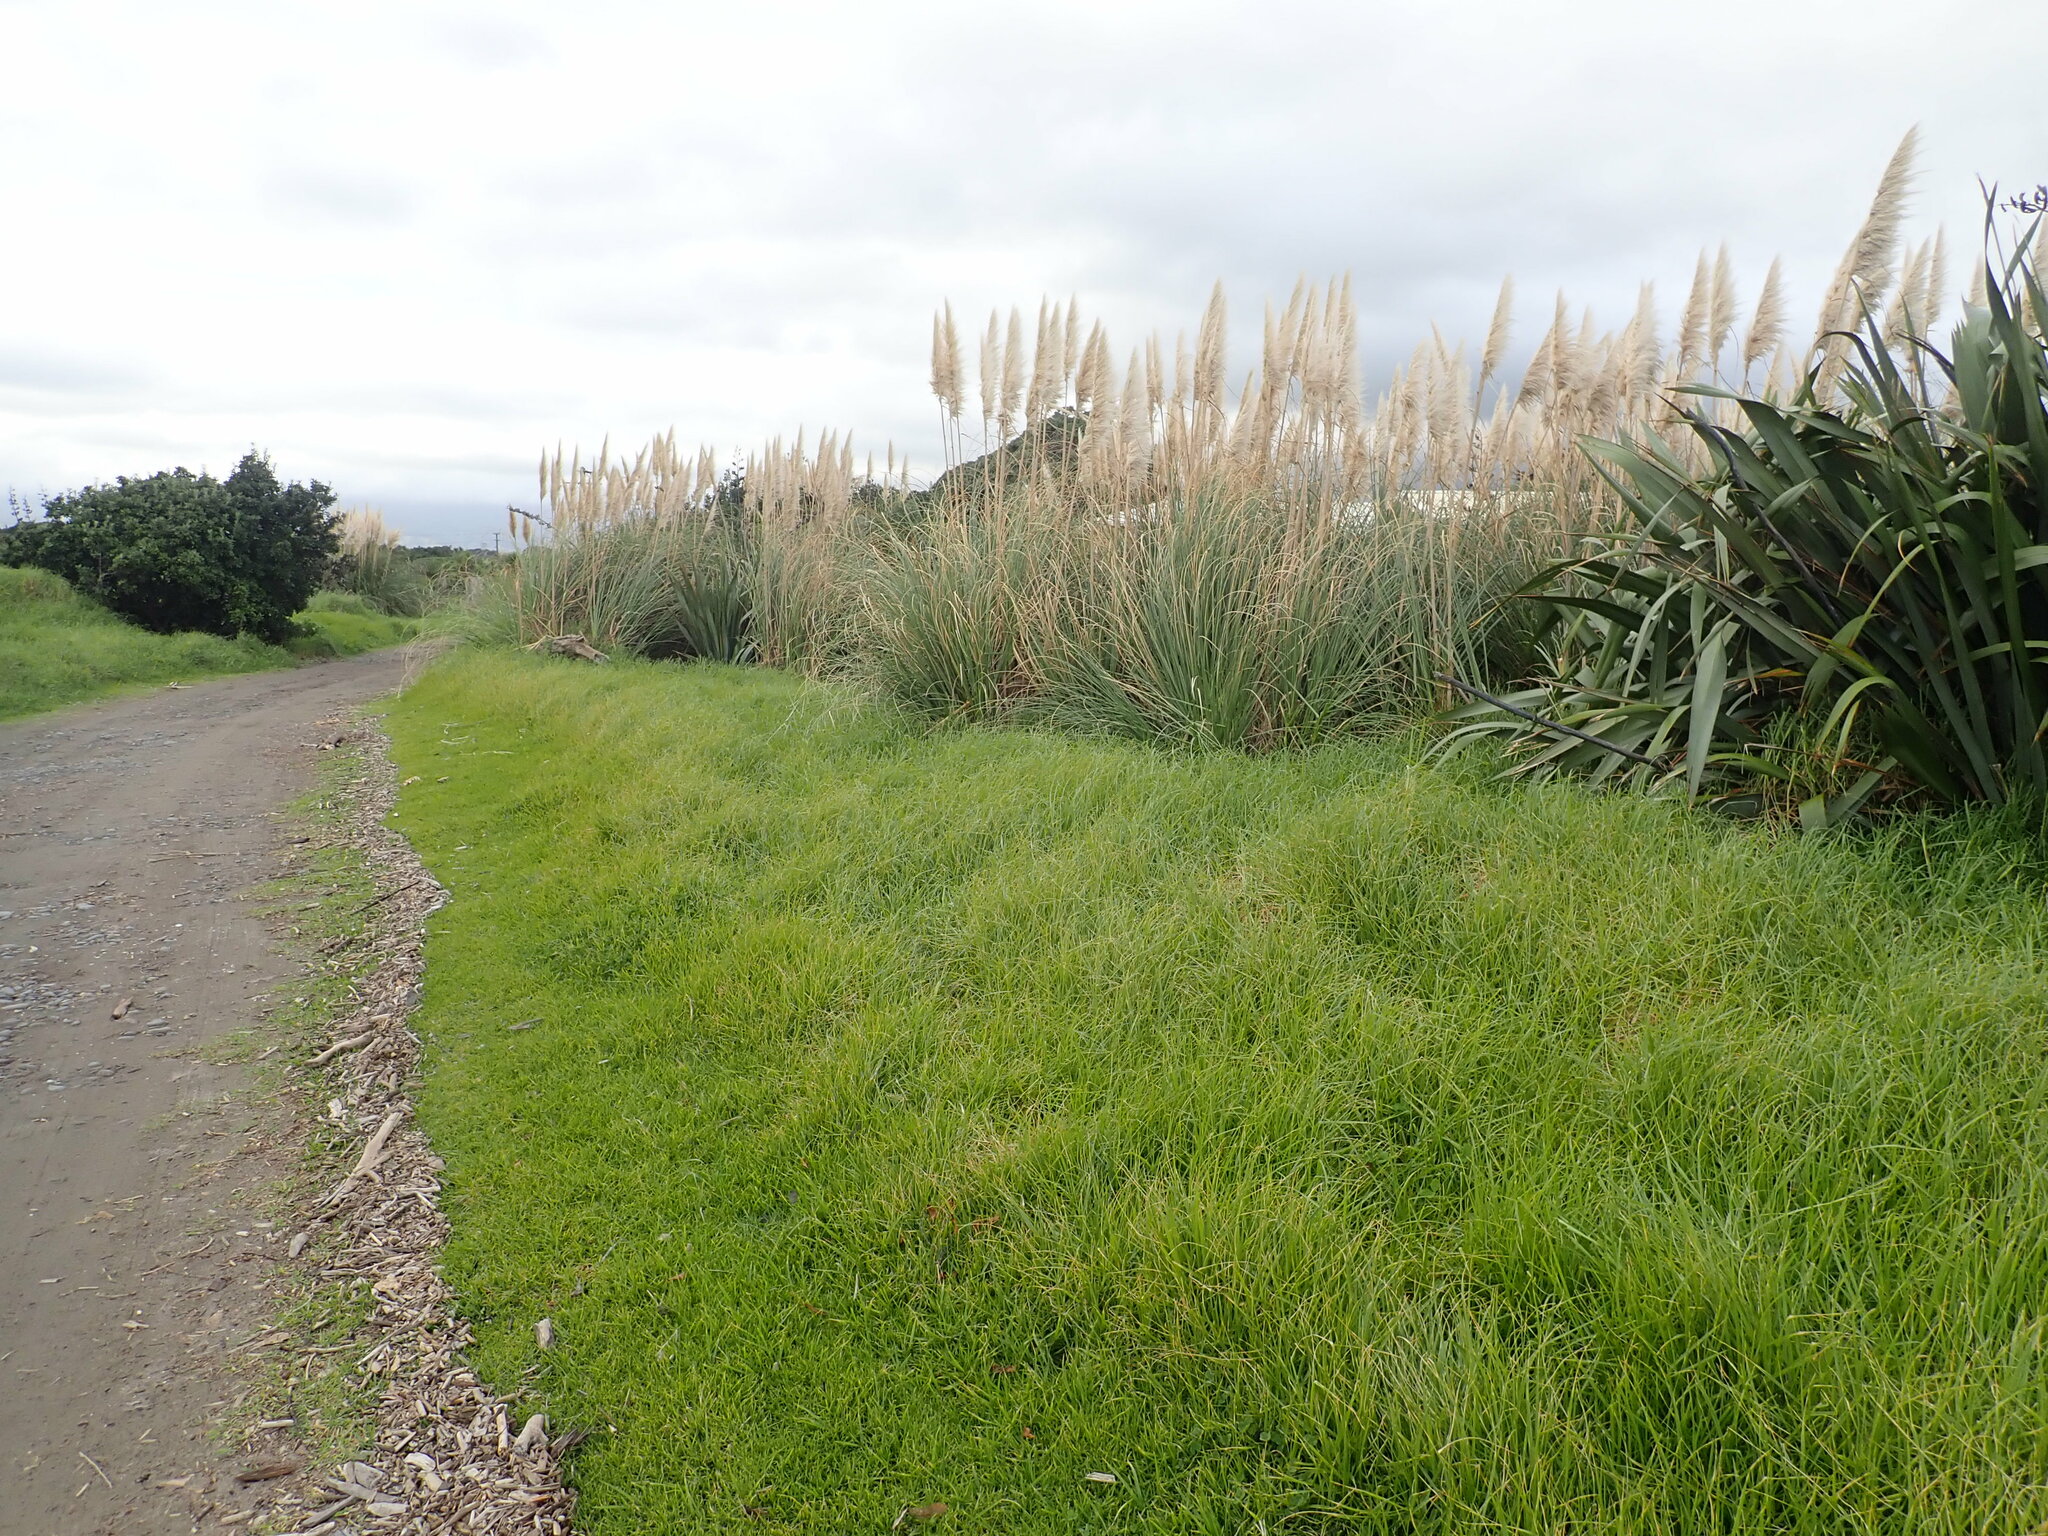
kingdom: Plantae
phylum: Tracheophyta
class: Liliopsida
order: Poales
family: Poaceae
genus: Cortaderia
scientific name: Cortaderia selloana
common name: Uruguayan pampas grass
